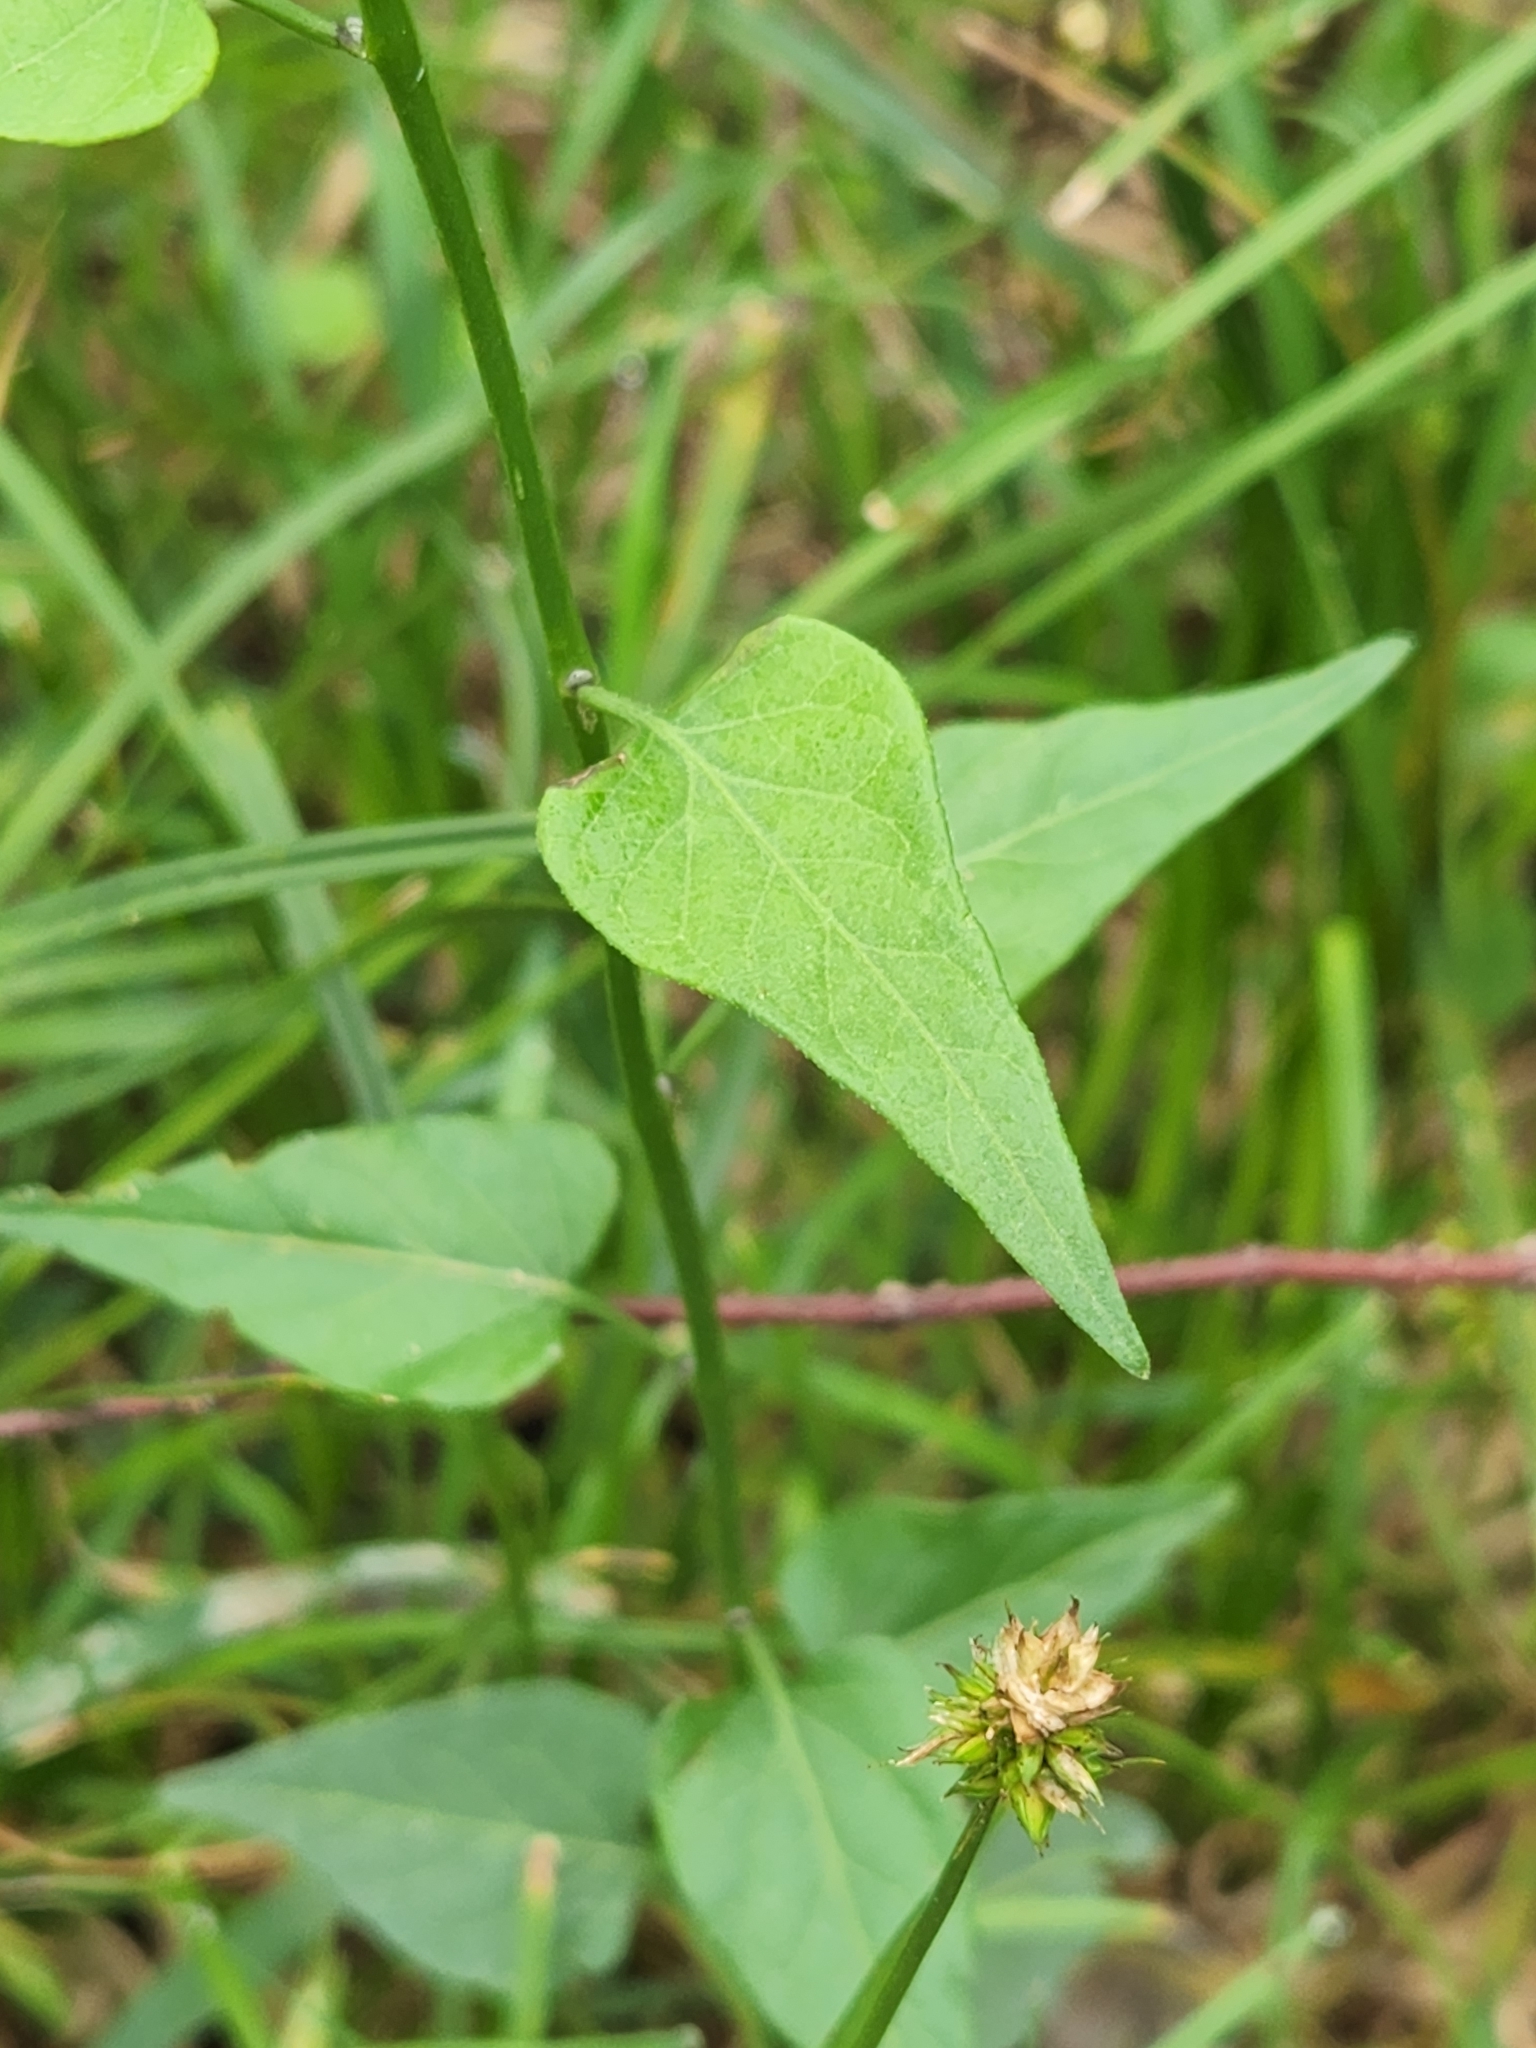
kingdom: Plantae
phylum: Tracheophyta
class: Magnoliopsida
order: Solanales
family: Solanaceae
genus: Solanum
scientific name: Solanum triquetrum
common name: Texas nightshade
